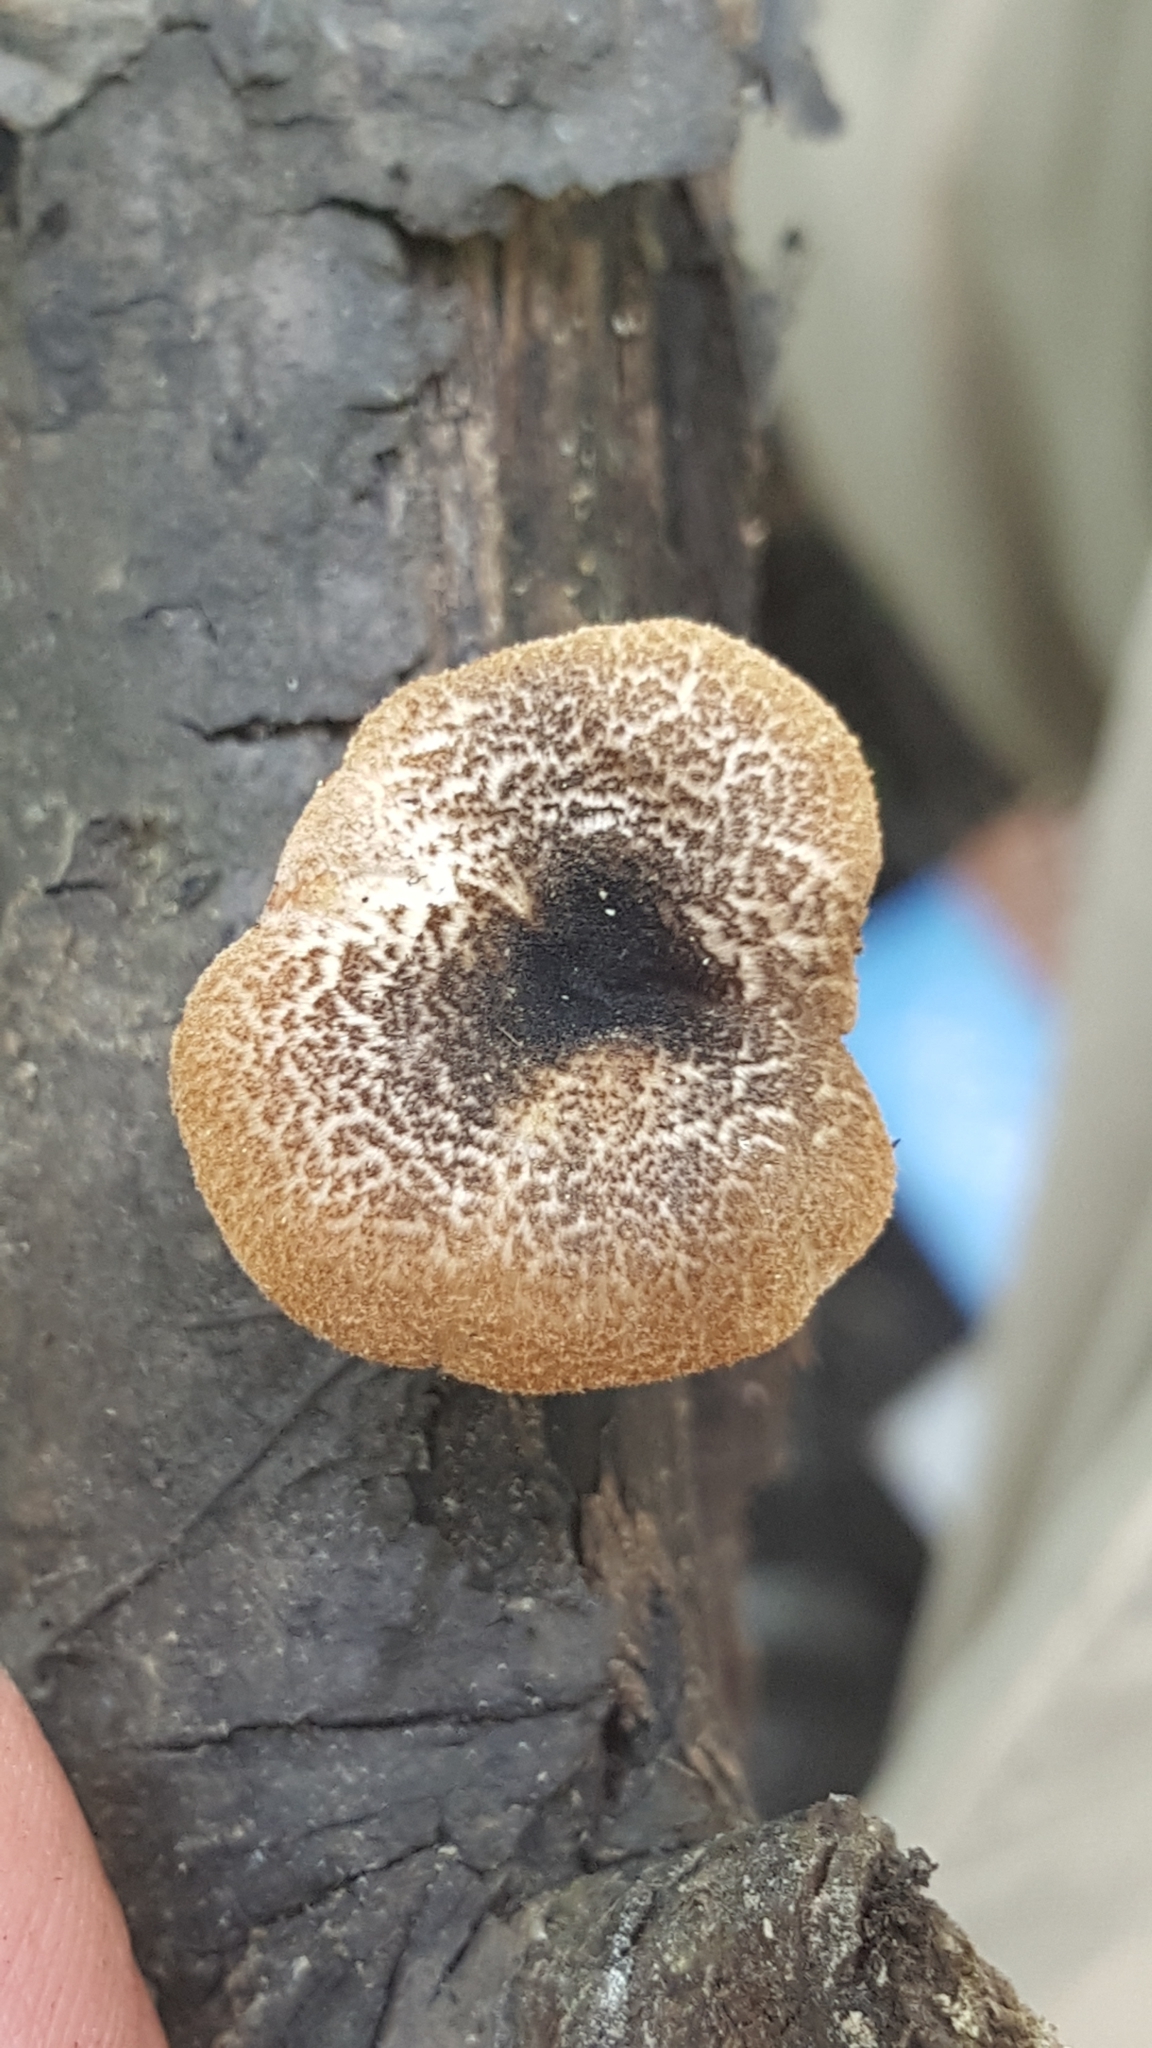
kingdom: Fungi
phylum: Basidiomycota
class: Agaricomycetes
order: Polyporales
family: Polyporaceae
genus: Lentinus
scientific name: Lentinus tigrinus
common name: Tiger sawgill
